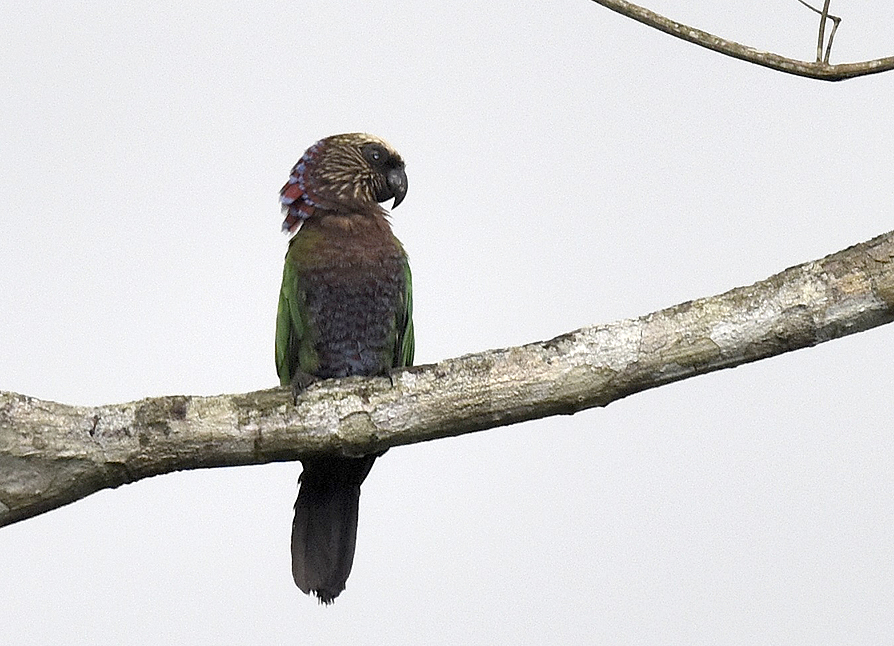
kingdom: Animalia
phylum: Chordata
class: Aves
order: Psittaciformes
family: Psittacidae
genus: Deroptyus
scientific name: Deroptyus accipitrinus
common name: Red-fan parrot
